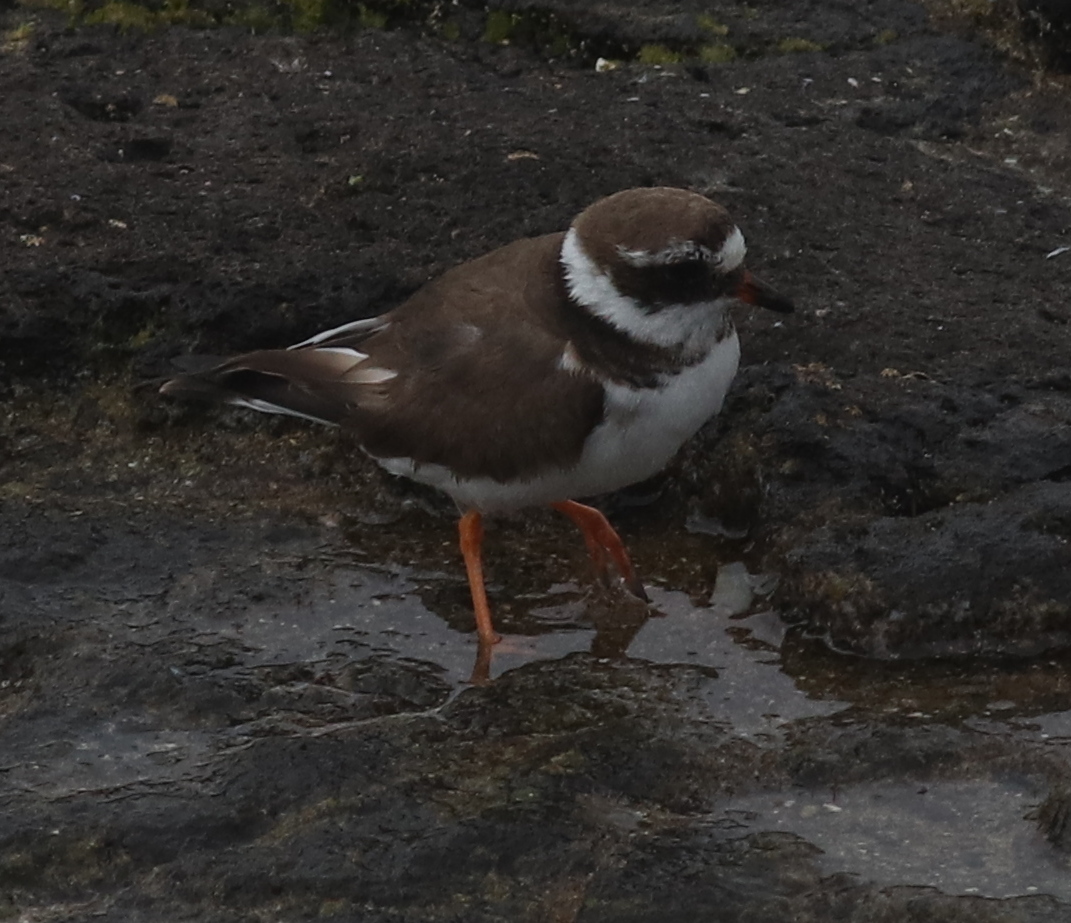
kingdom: Animalia
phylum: Chordata
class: Aves
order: Charadriiformes
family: Charadriidae
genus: Charadrius
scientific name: Charadrius hiaticula
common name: Common ringed plover
